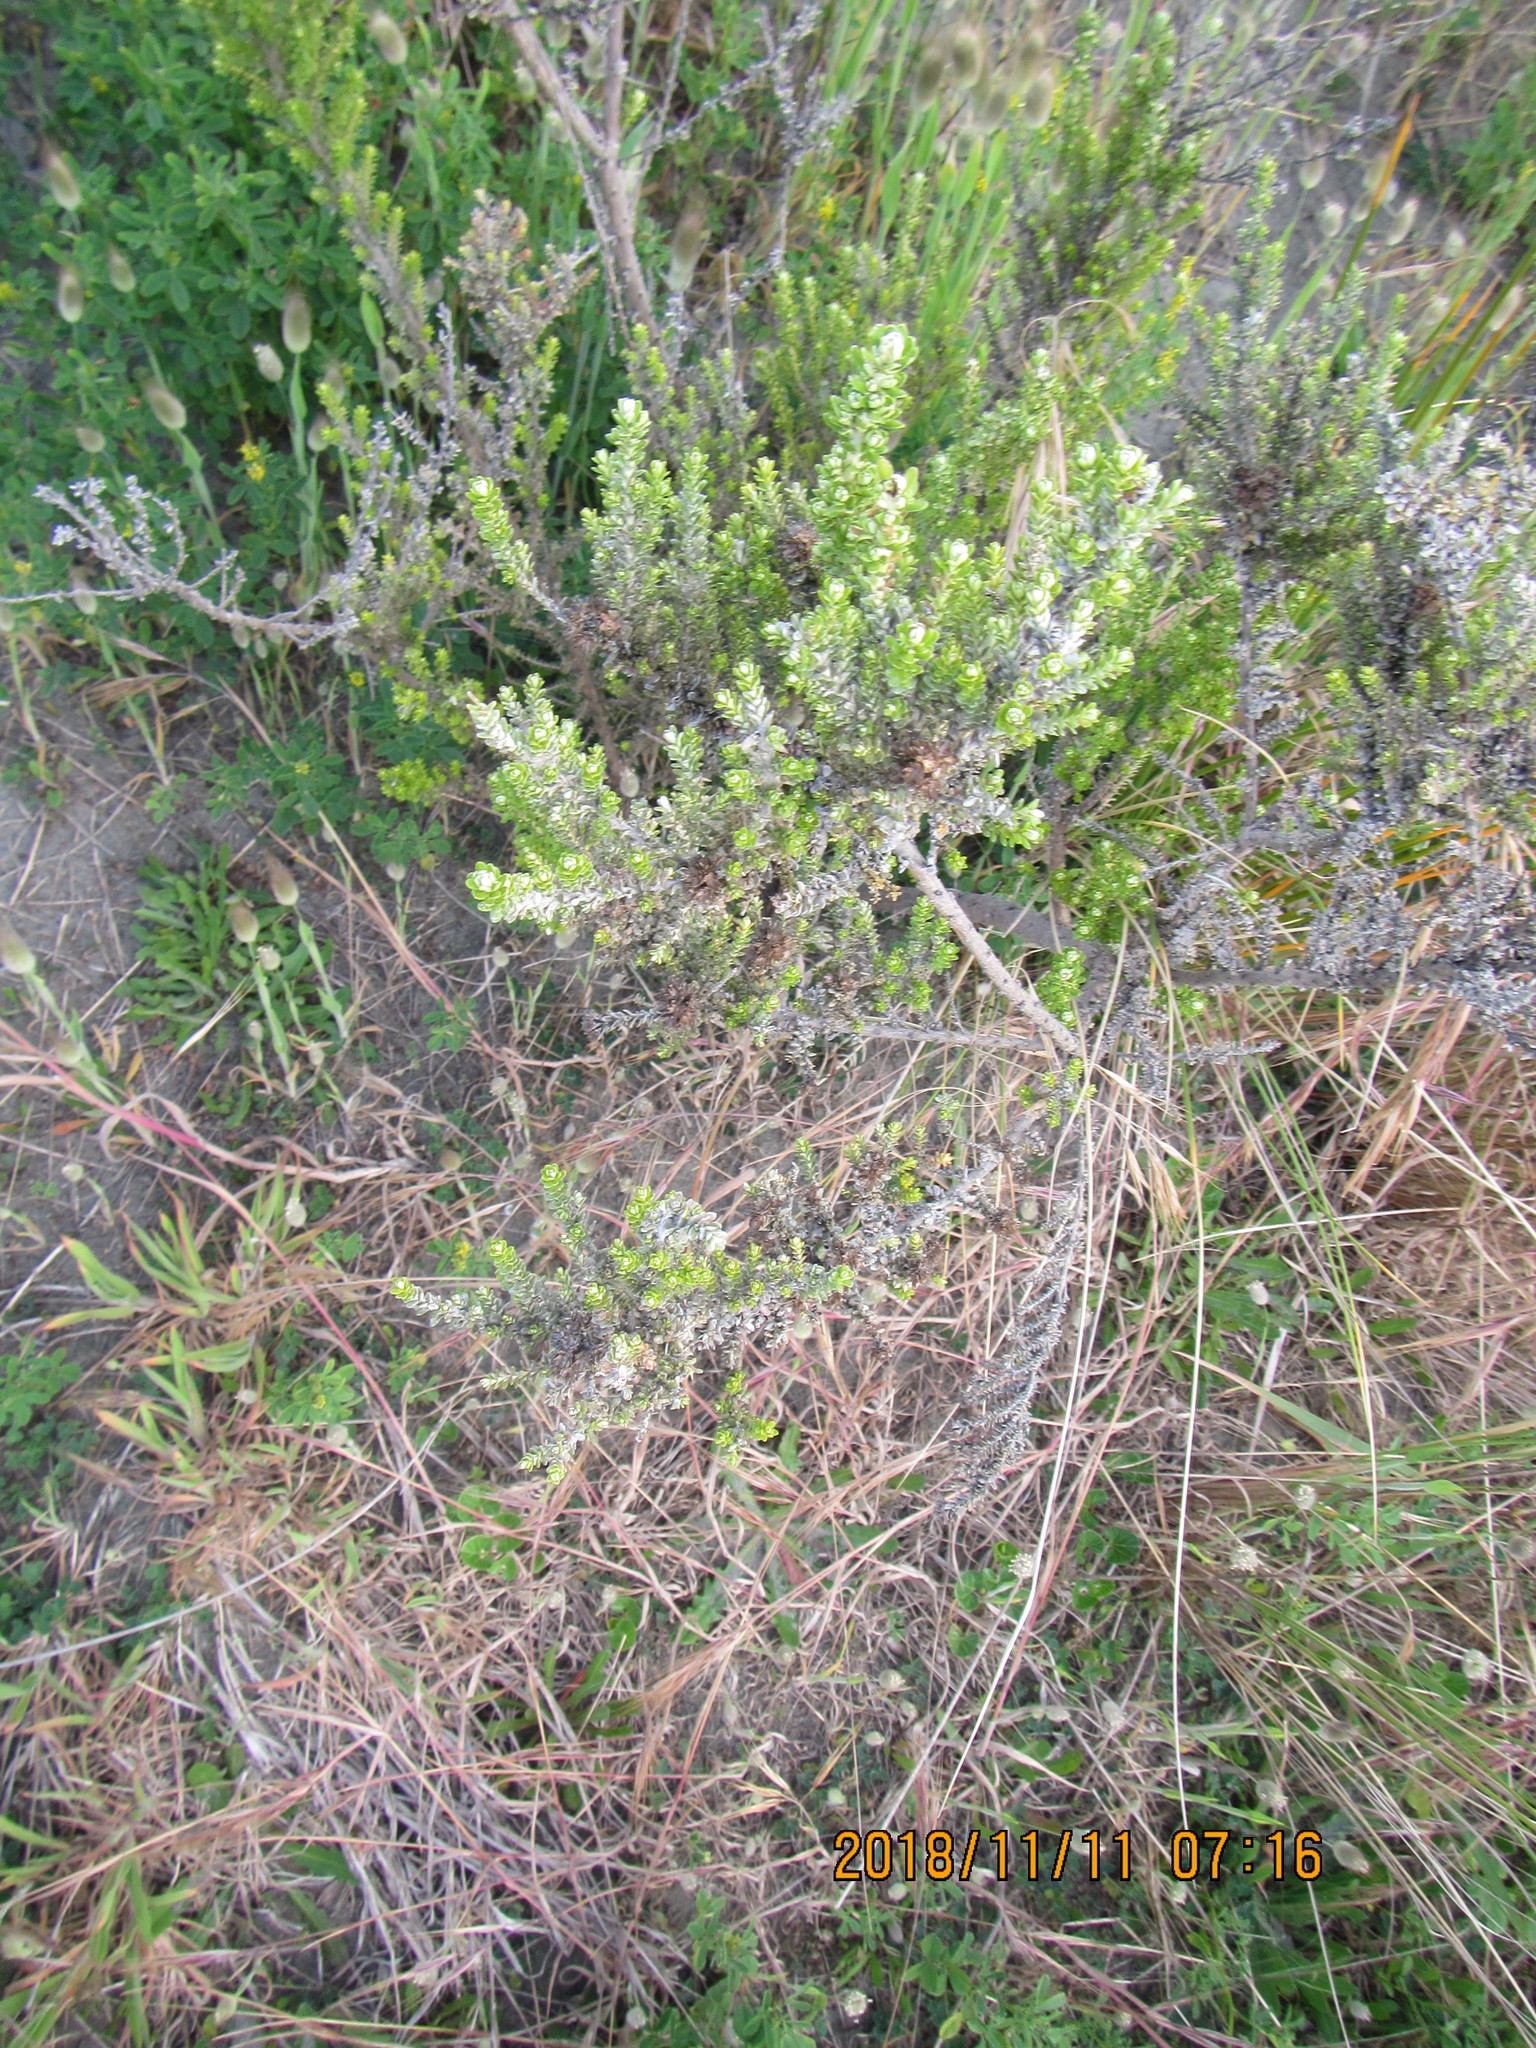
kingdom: Plantae
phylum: Tracheophyta
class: Magnoliopsida
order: Asterales
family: Asteraceae
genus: Ozothamnus
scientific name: Ozothamnus leptophyllus
